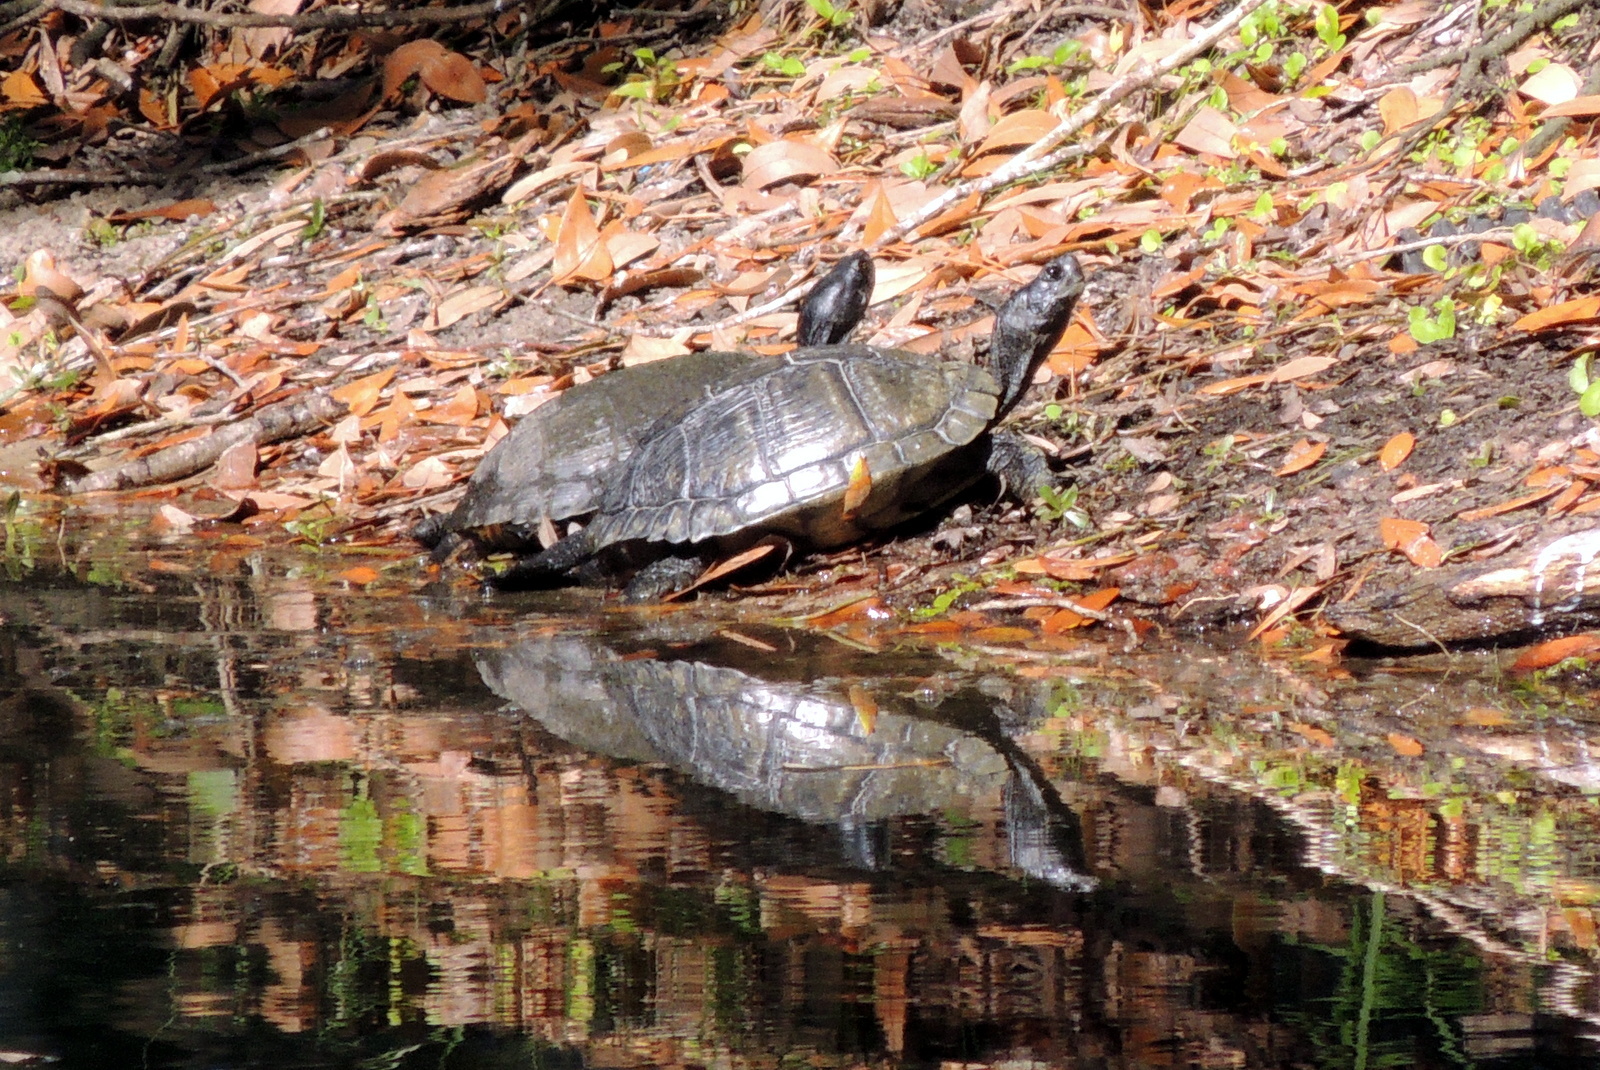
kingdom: Animalia
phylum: Chordata
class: Testudines
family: Emydidae
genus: Trachemys
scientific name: Trachemys scripta
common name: Slider
